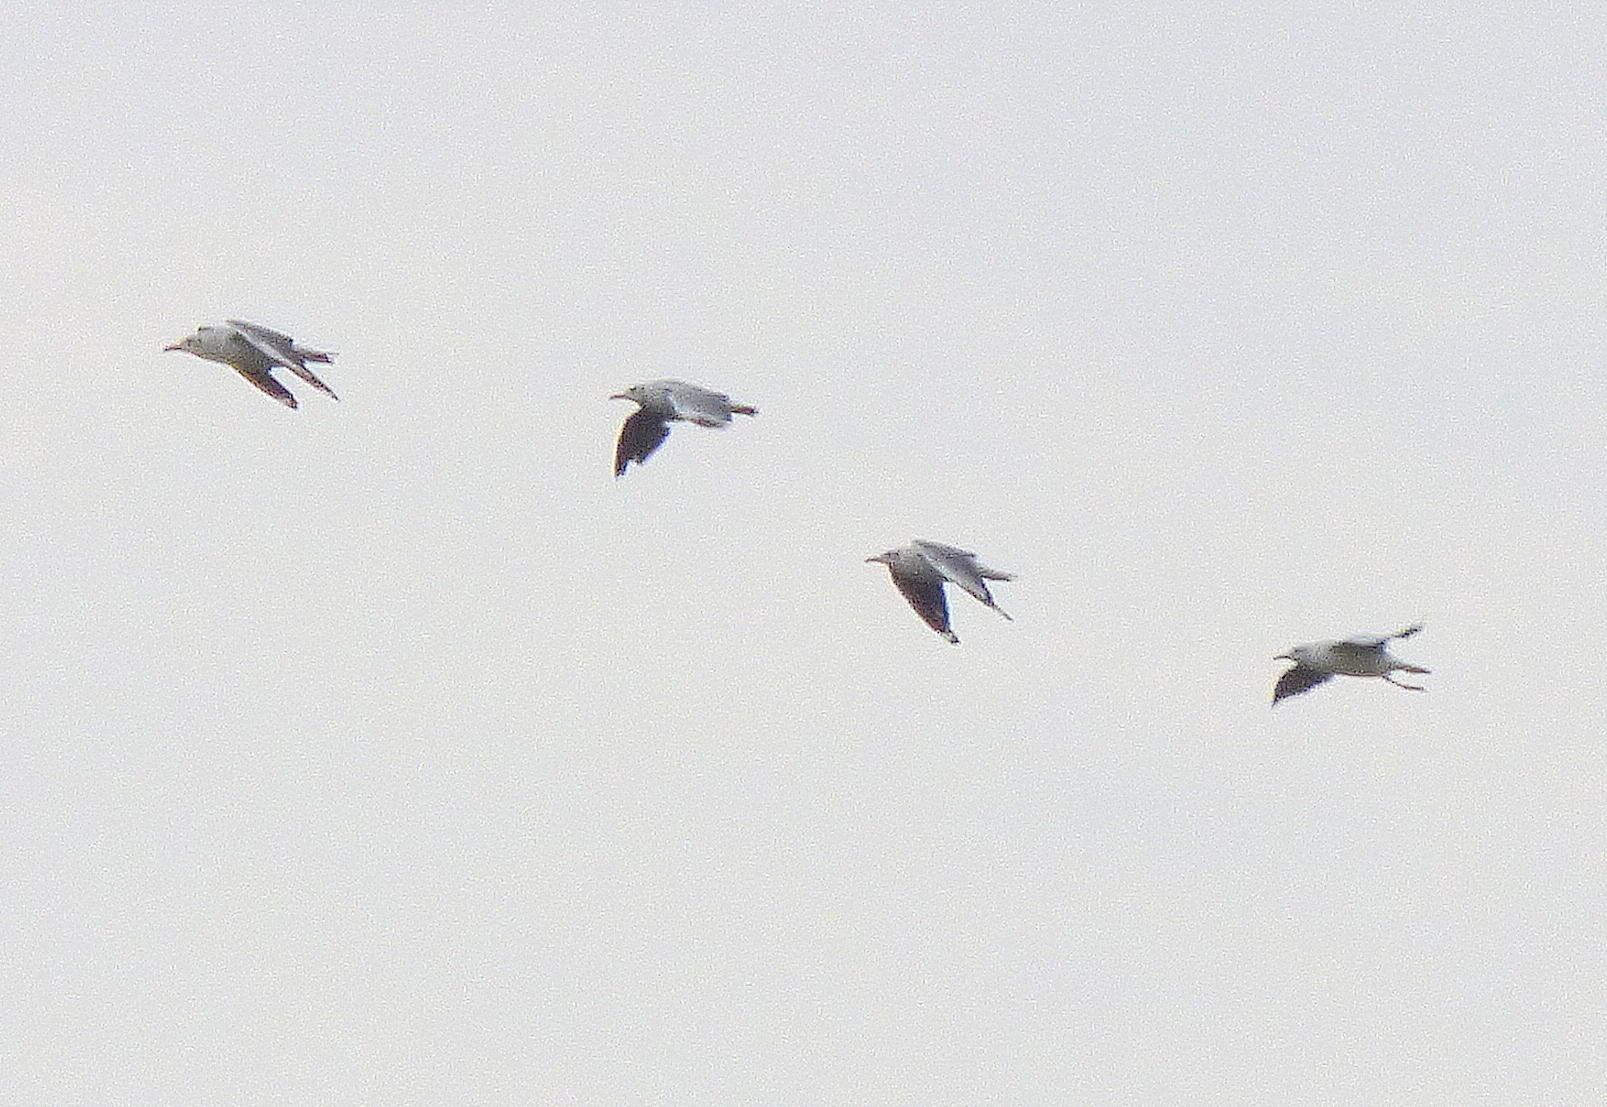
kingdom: Animalia
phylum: Chordata
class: Aves
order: Charadriiformes
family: Laridae
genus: Chroicocephalus
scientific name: Chroicocephalus cirrocephalus
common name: Grey-headed gull
